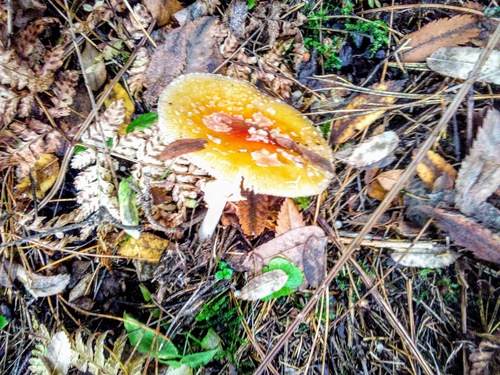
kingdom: Fungi
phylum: Basidiomycota
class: Agaricomycetes
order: Agaricales
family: Amanitaceae
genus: Amanita
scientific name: Amanita muscaria
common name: Fly agaric
